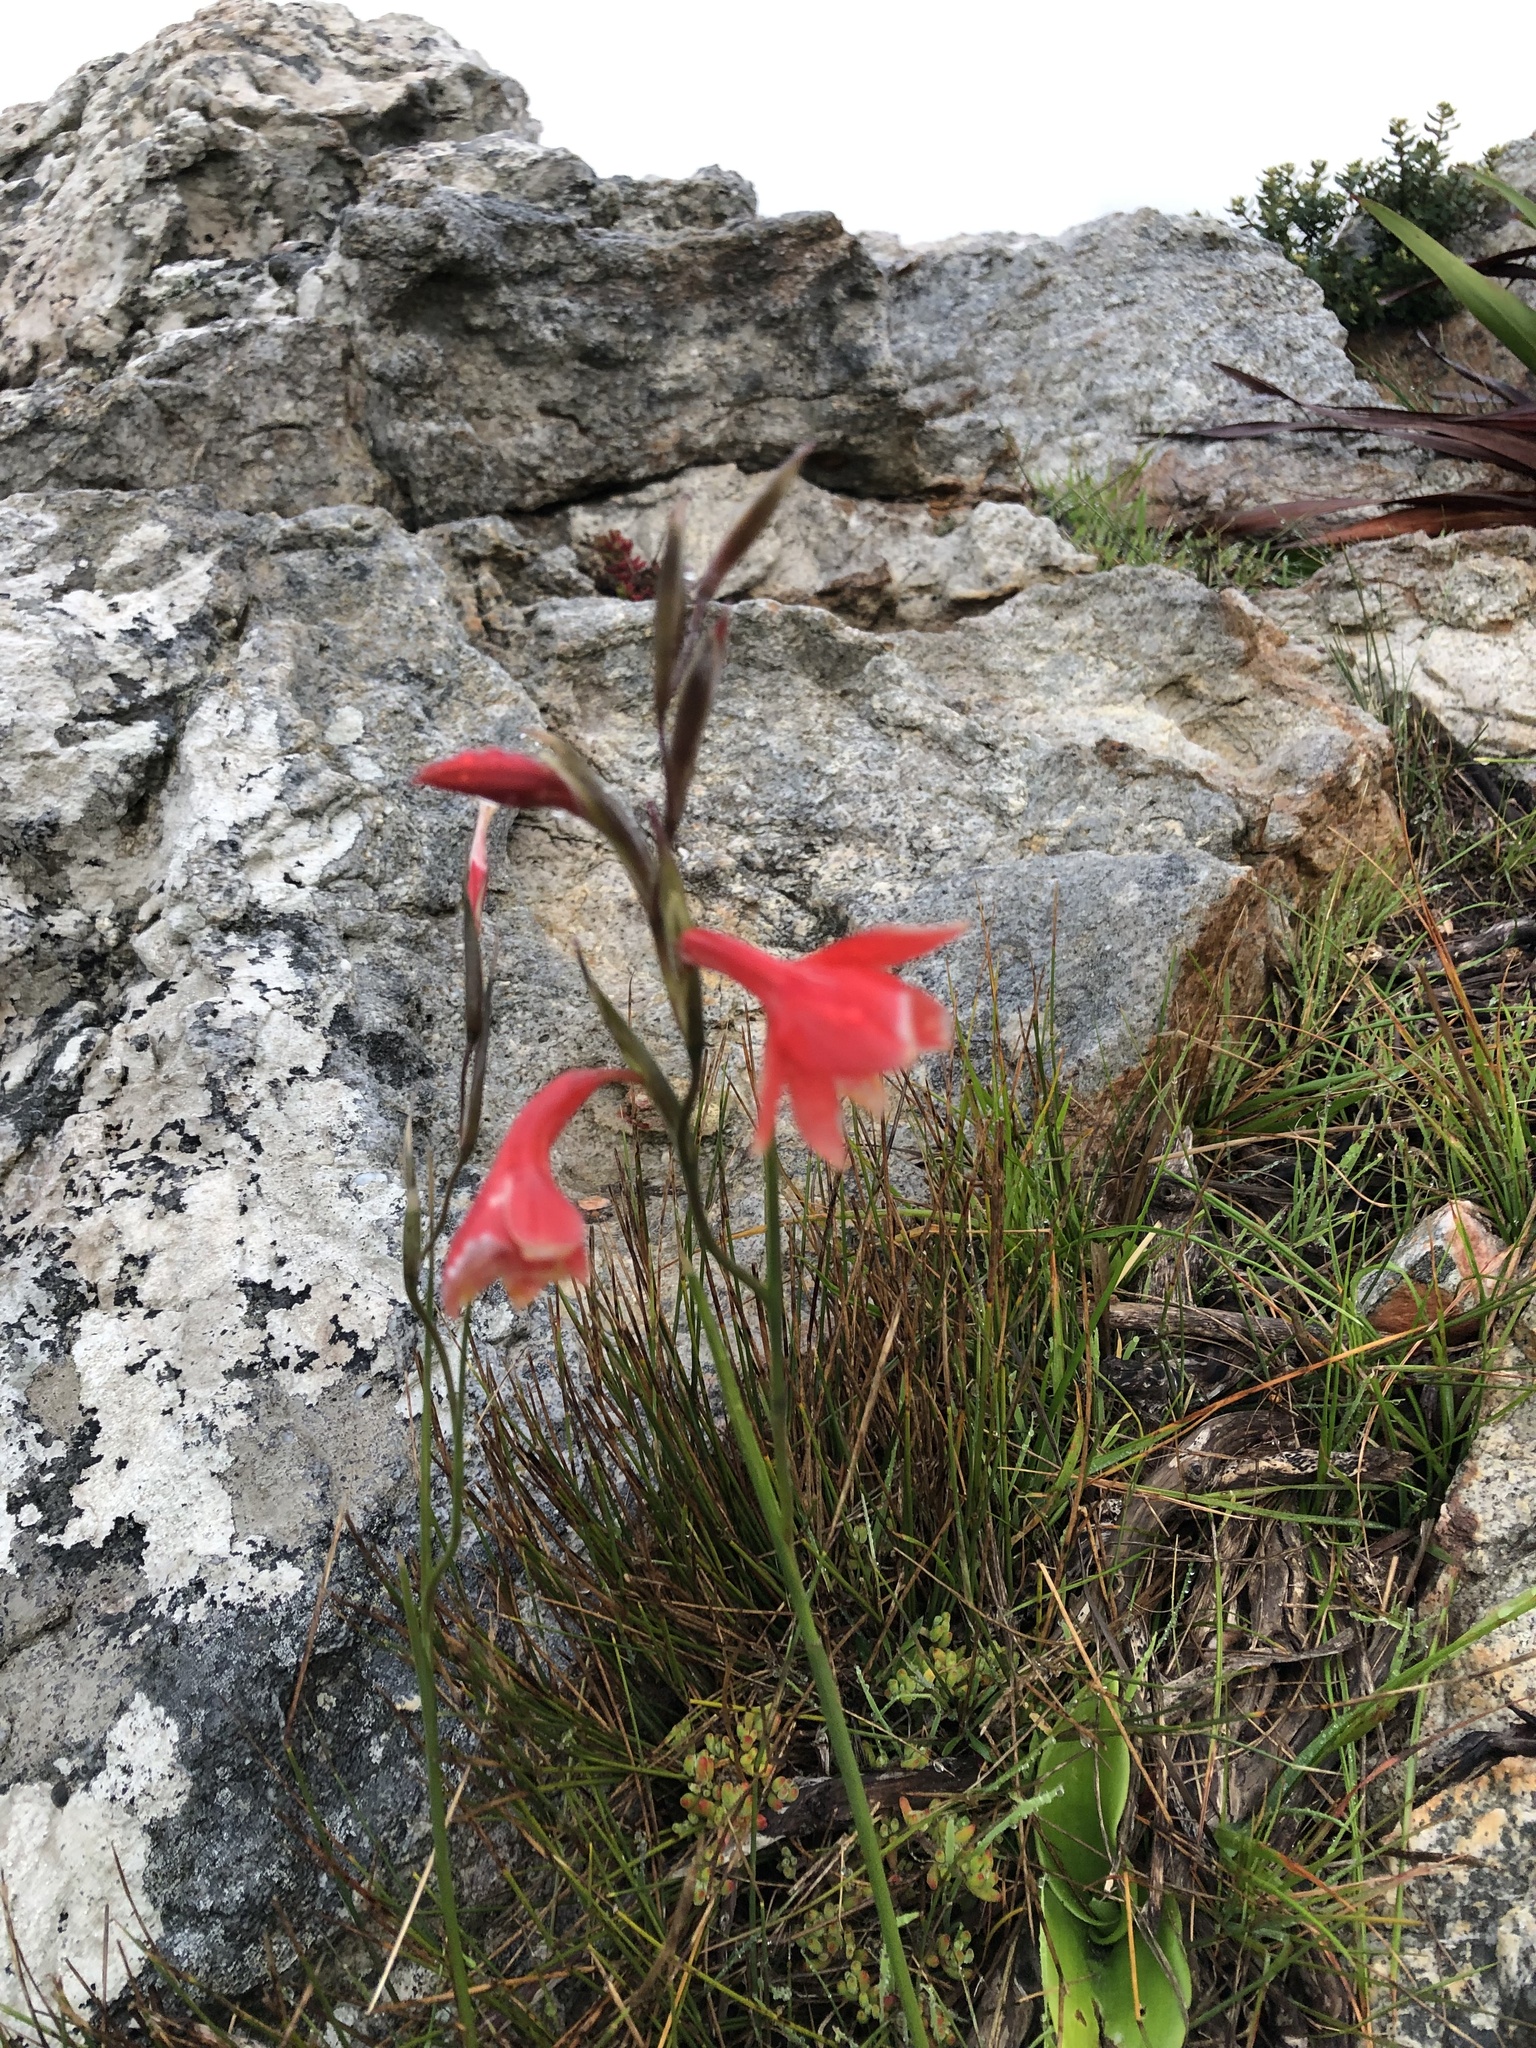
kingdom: Plantae
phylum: Tracheophyta
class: Liliopsida
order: Asparagales
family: Iridaceae
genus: Gladiolus
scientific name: Gladiolus priorii
